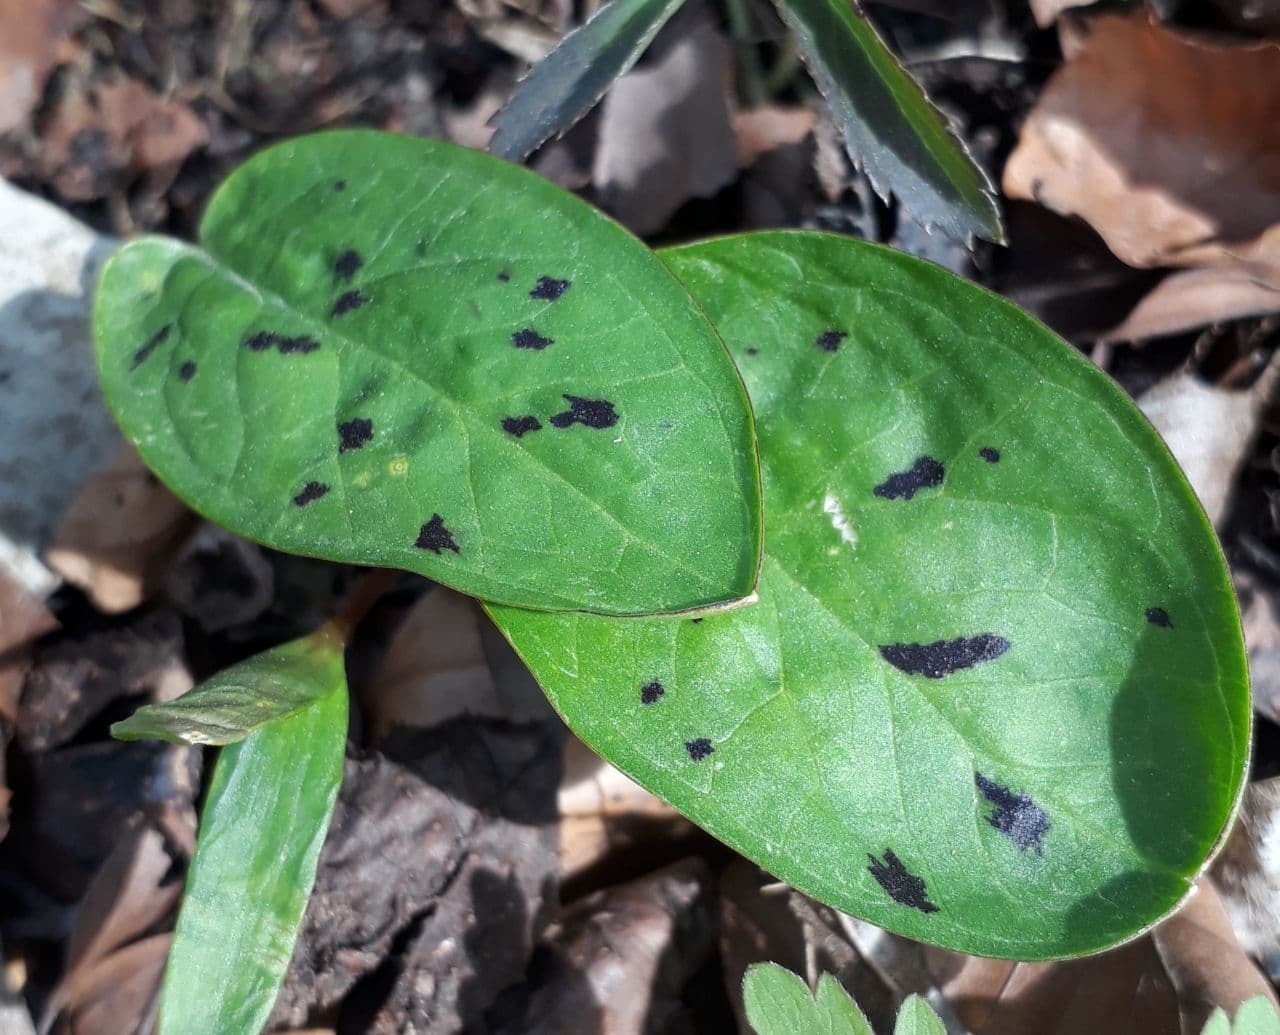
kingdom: Plantae
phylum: Tracheophyta
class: Liliopsida
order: Alismatales
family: Araceae
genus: Arum
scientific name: Arum maculatum
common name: Lords-and-ladies
